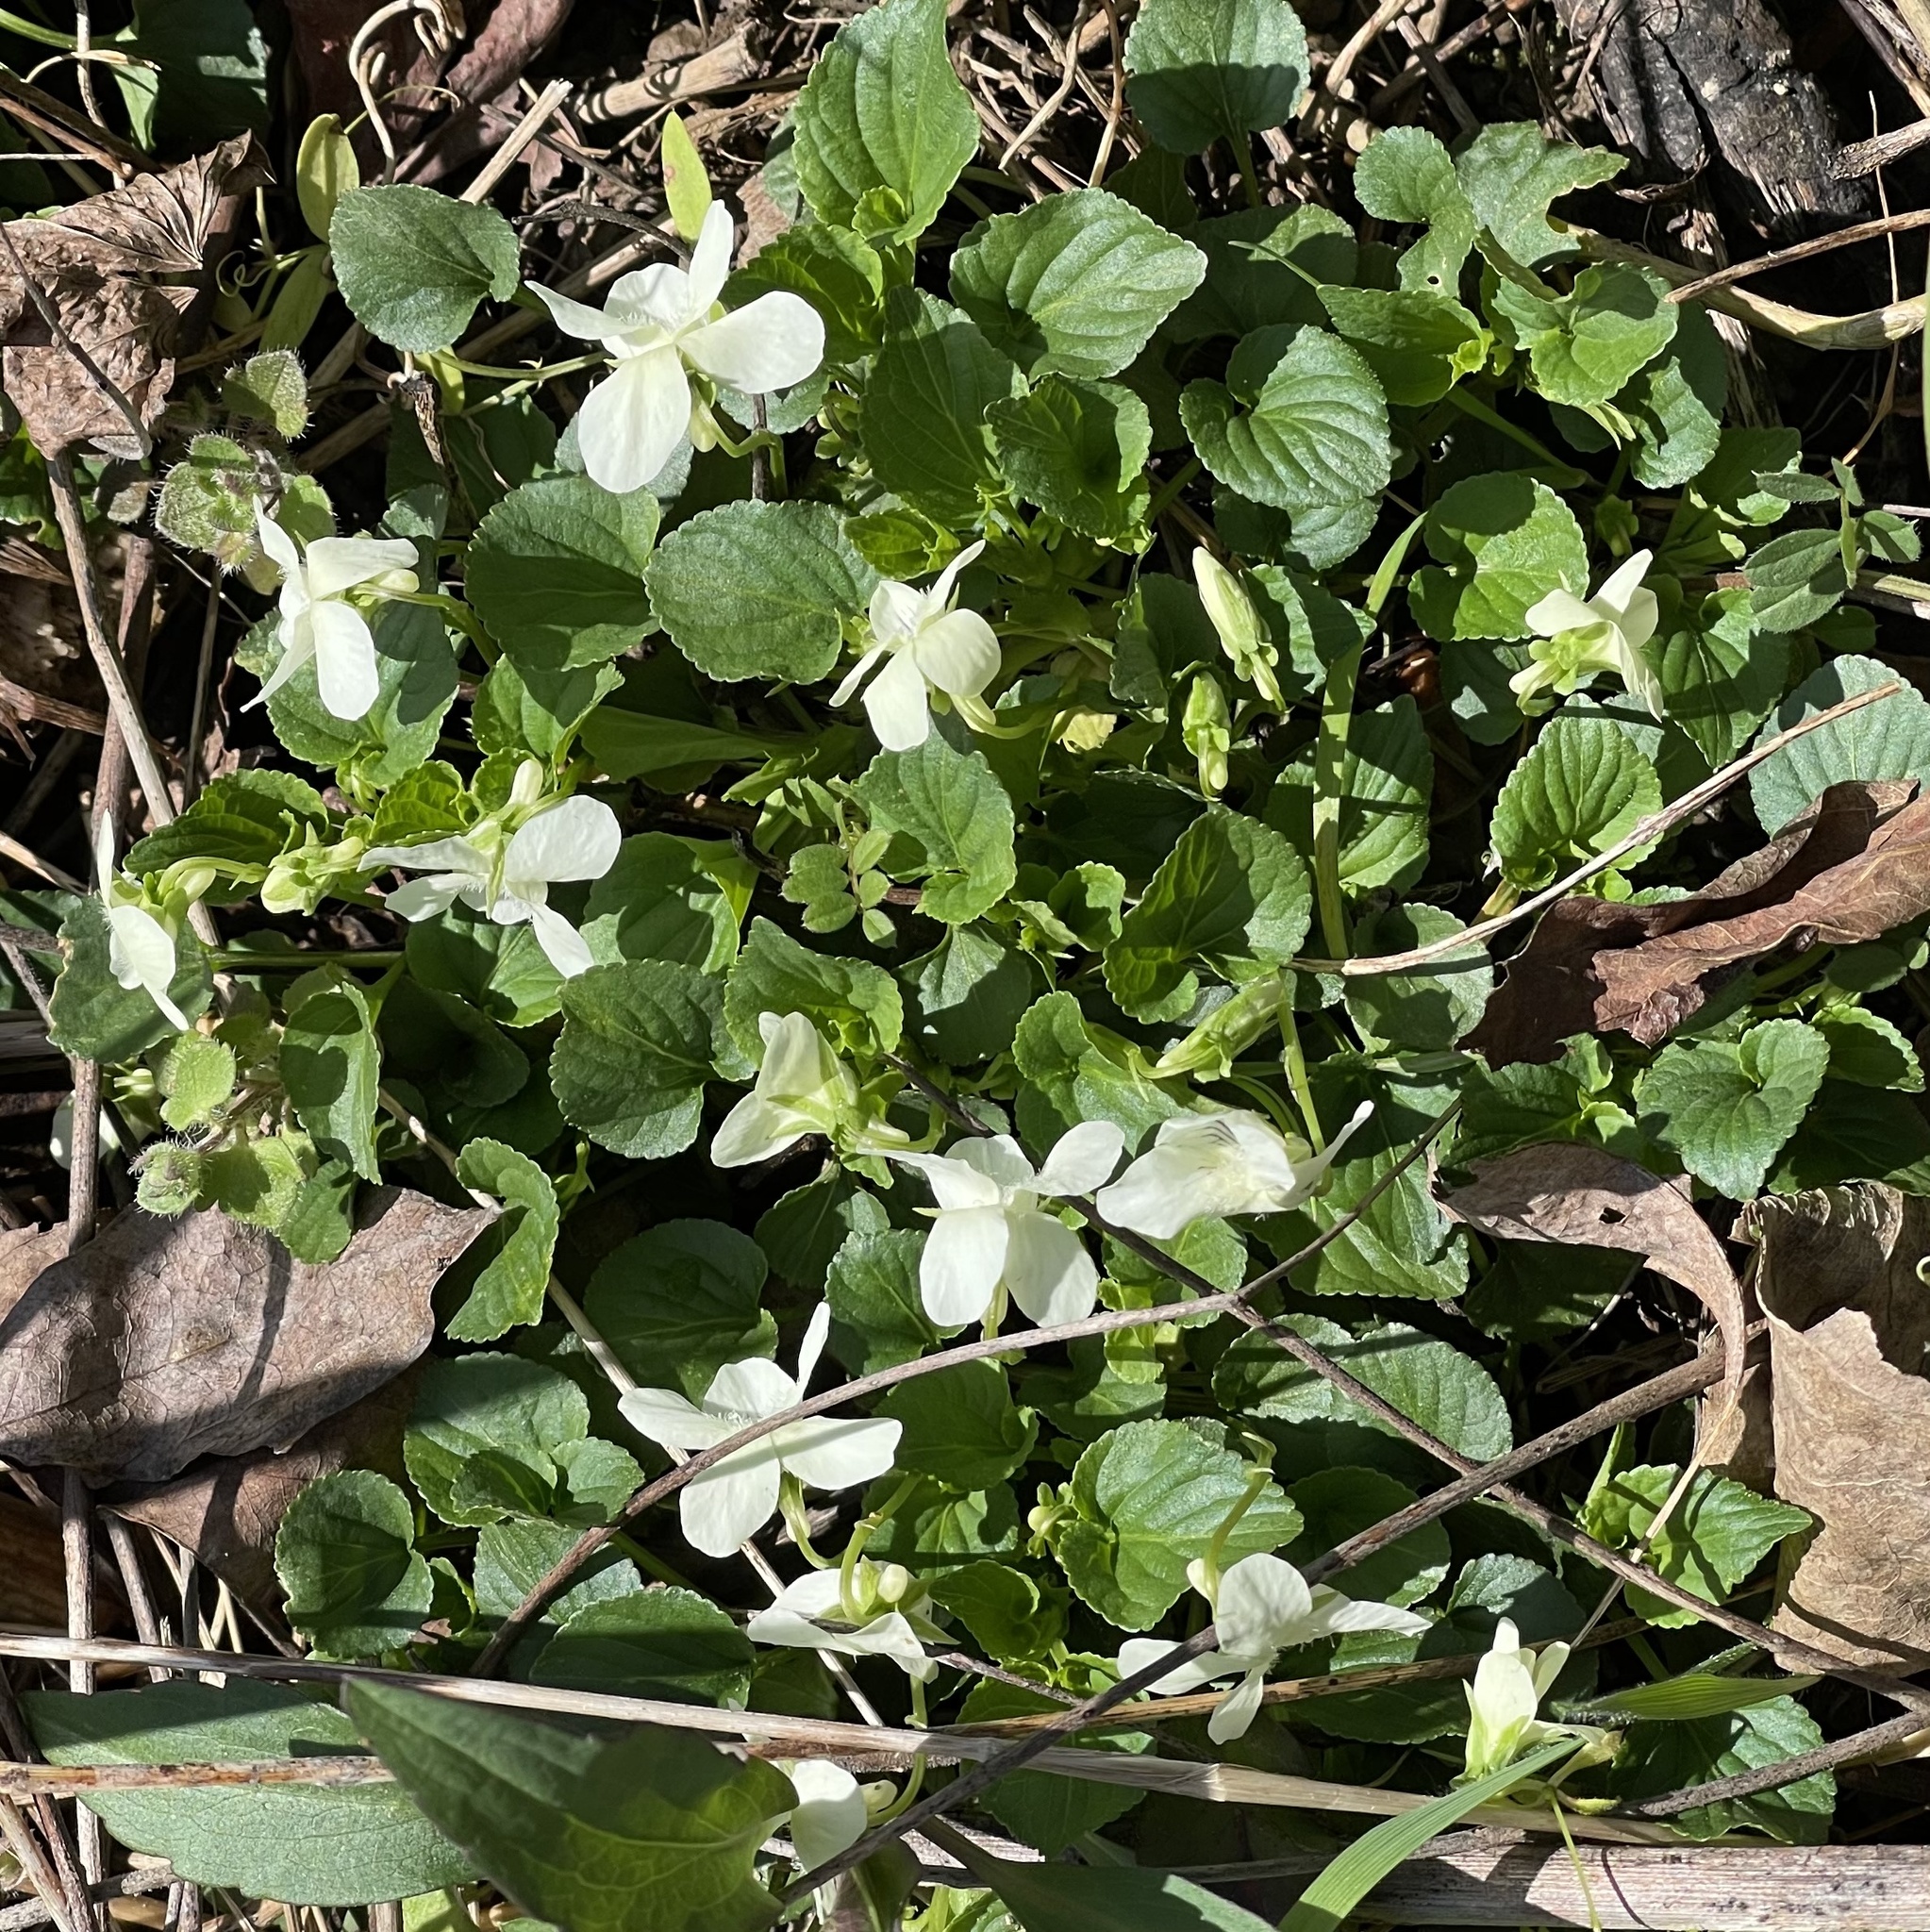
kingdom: Plantae
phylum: Tracheophyta
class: Magnoliopsida
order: Malpighiales
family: Violaceae
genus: Viola
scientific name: Viola striata
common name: Cream violet
